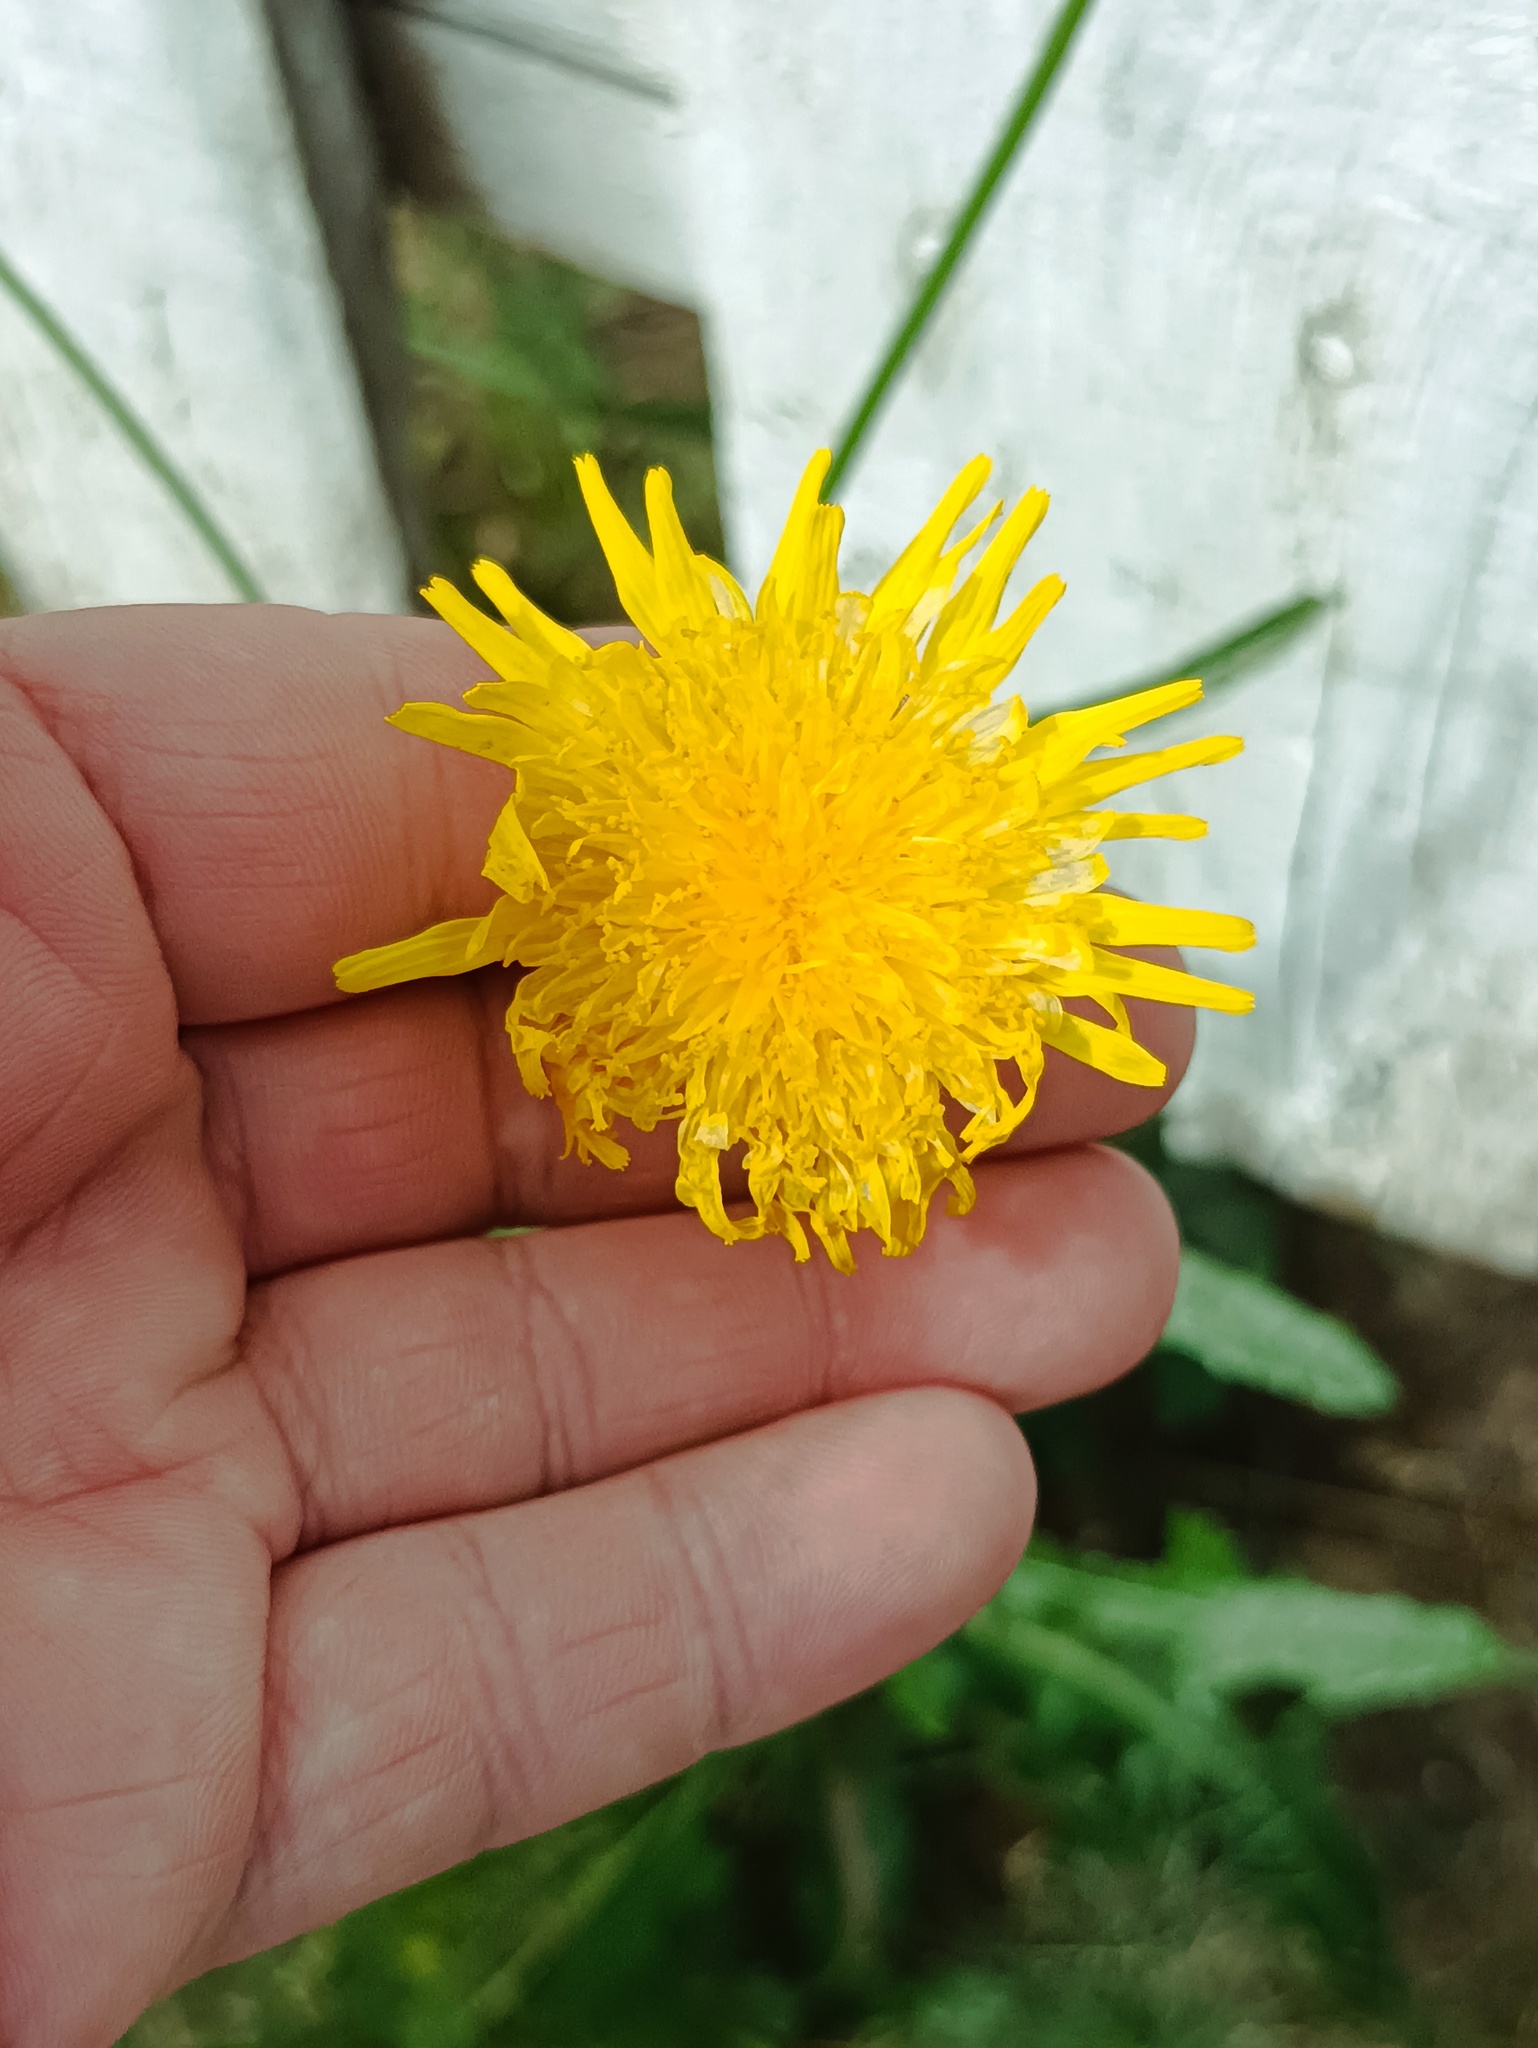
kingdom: Plantae
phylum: Tracheophyta
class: Magnoliopsida
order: Asterales
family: Asteraceae
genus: Sonchus
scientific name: Sonchus arvensis
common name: Perennial sow-thistle
